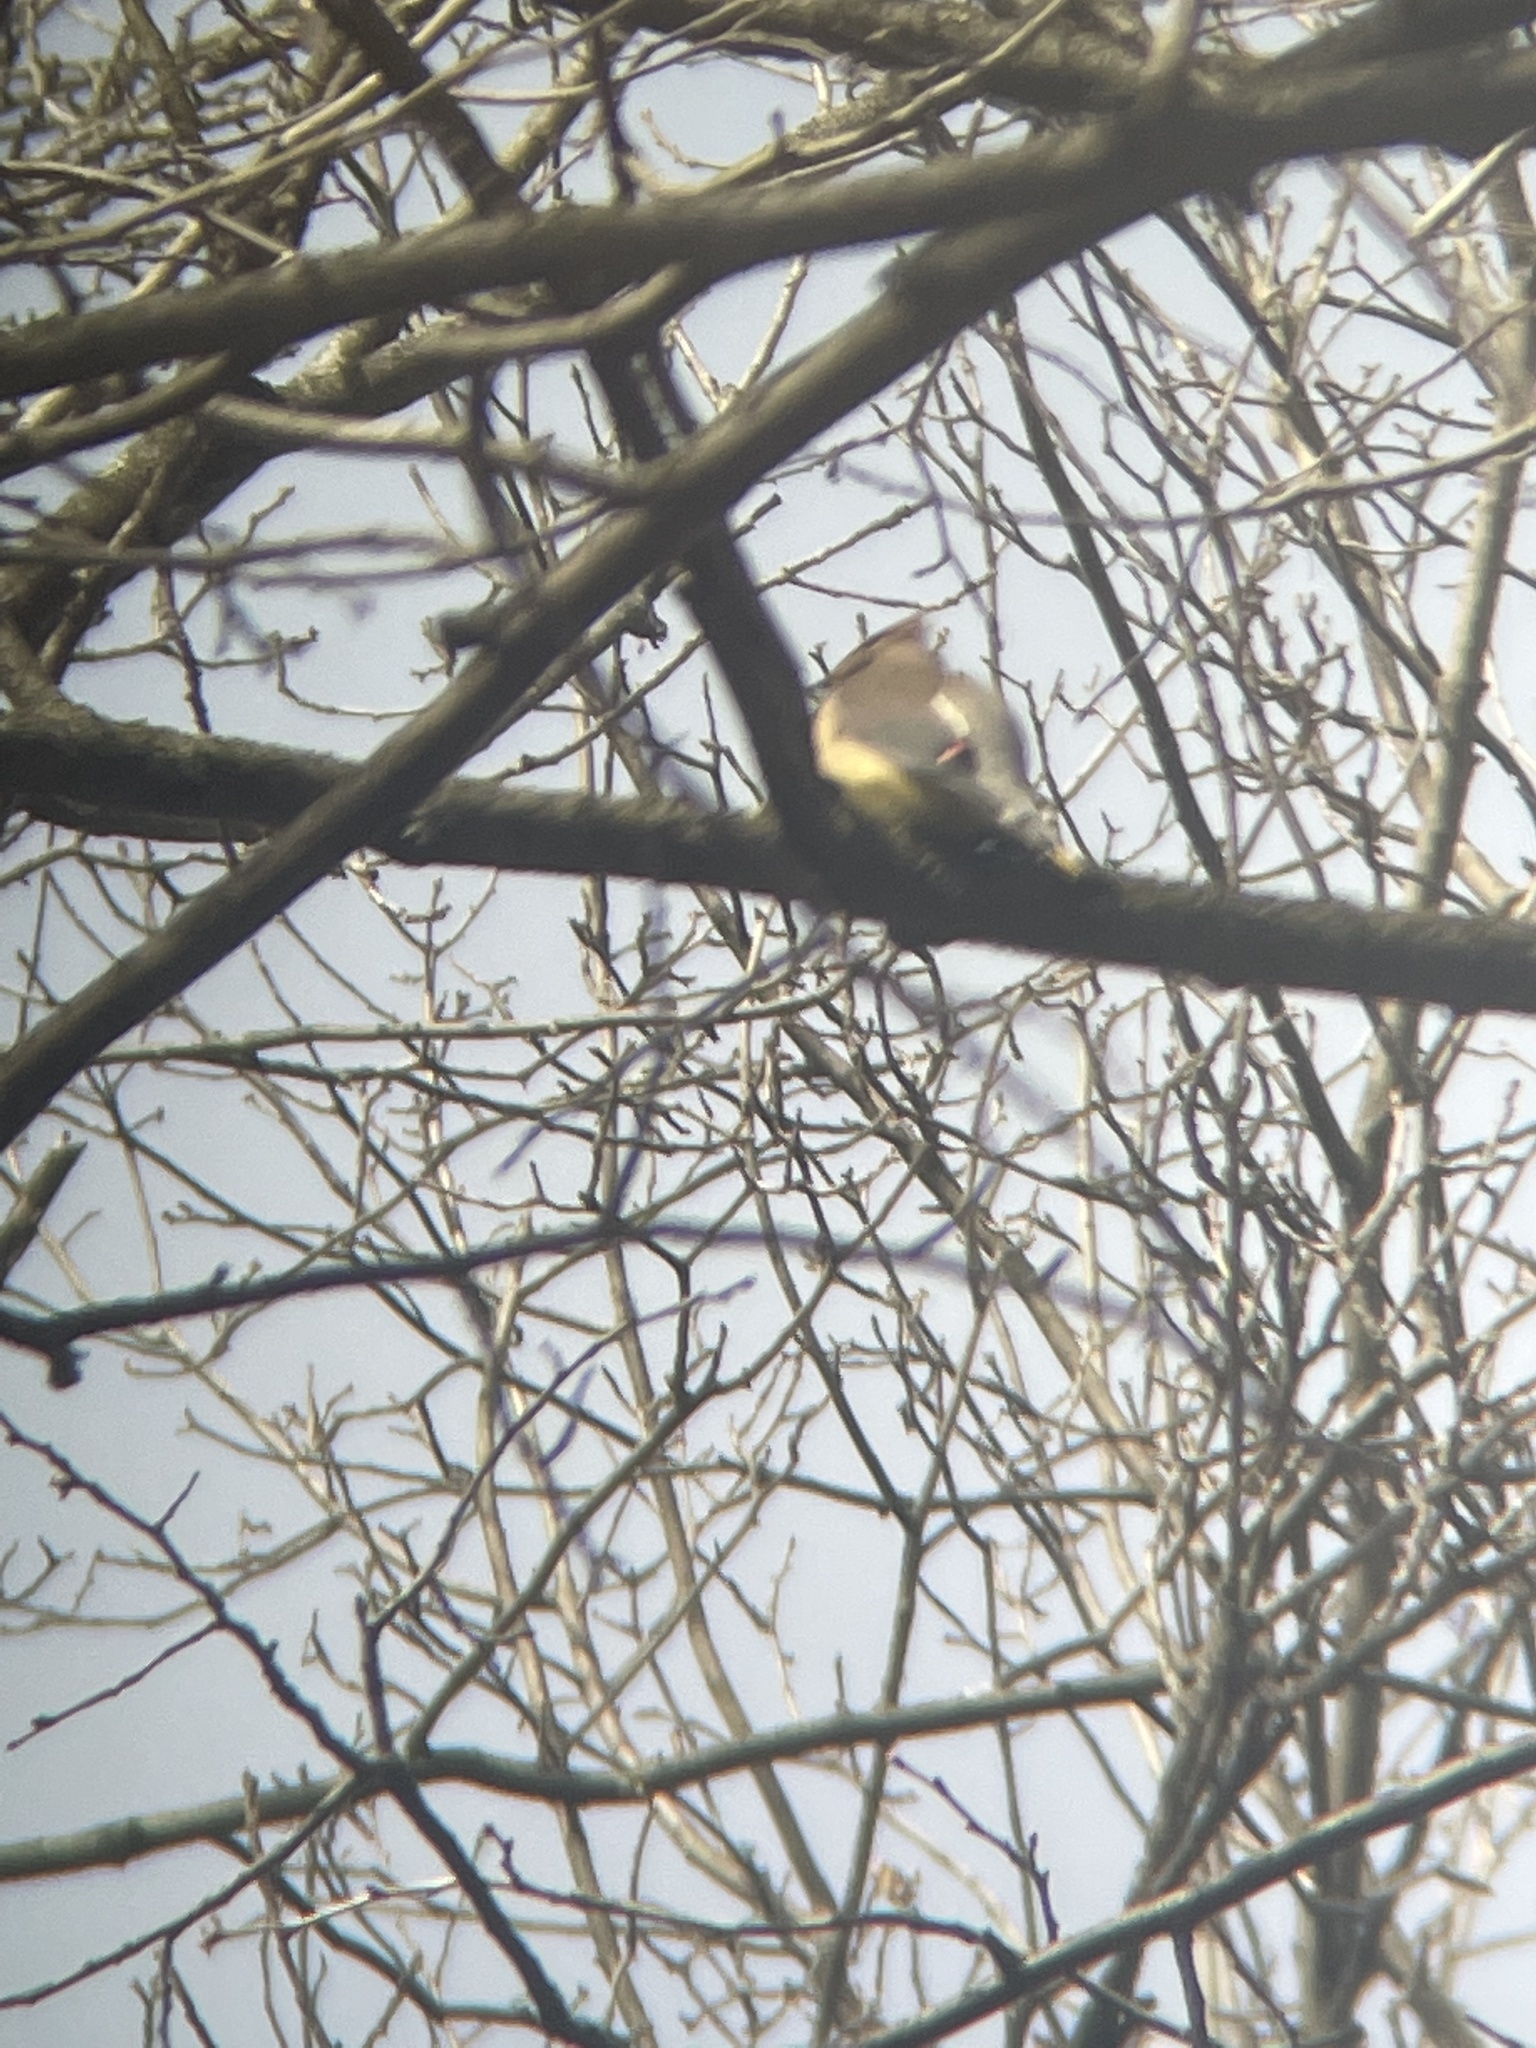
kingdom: Animalia
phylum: Chordata
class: Aves
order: Passeriformes
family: Bombycillidae
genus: Bombycilla
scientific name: Bombycilla cedrorum
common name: Cedar waxwing
